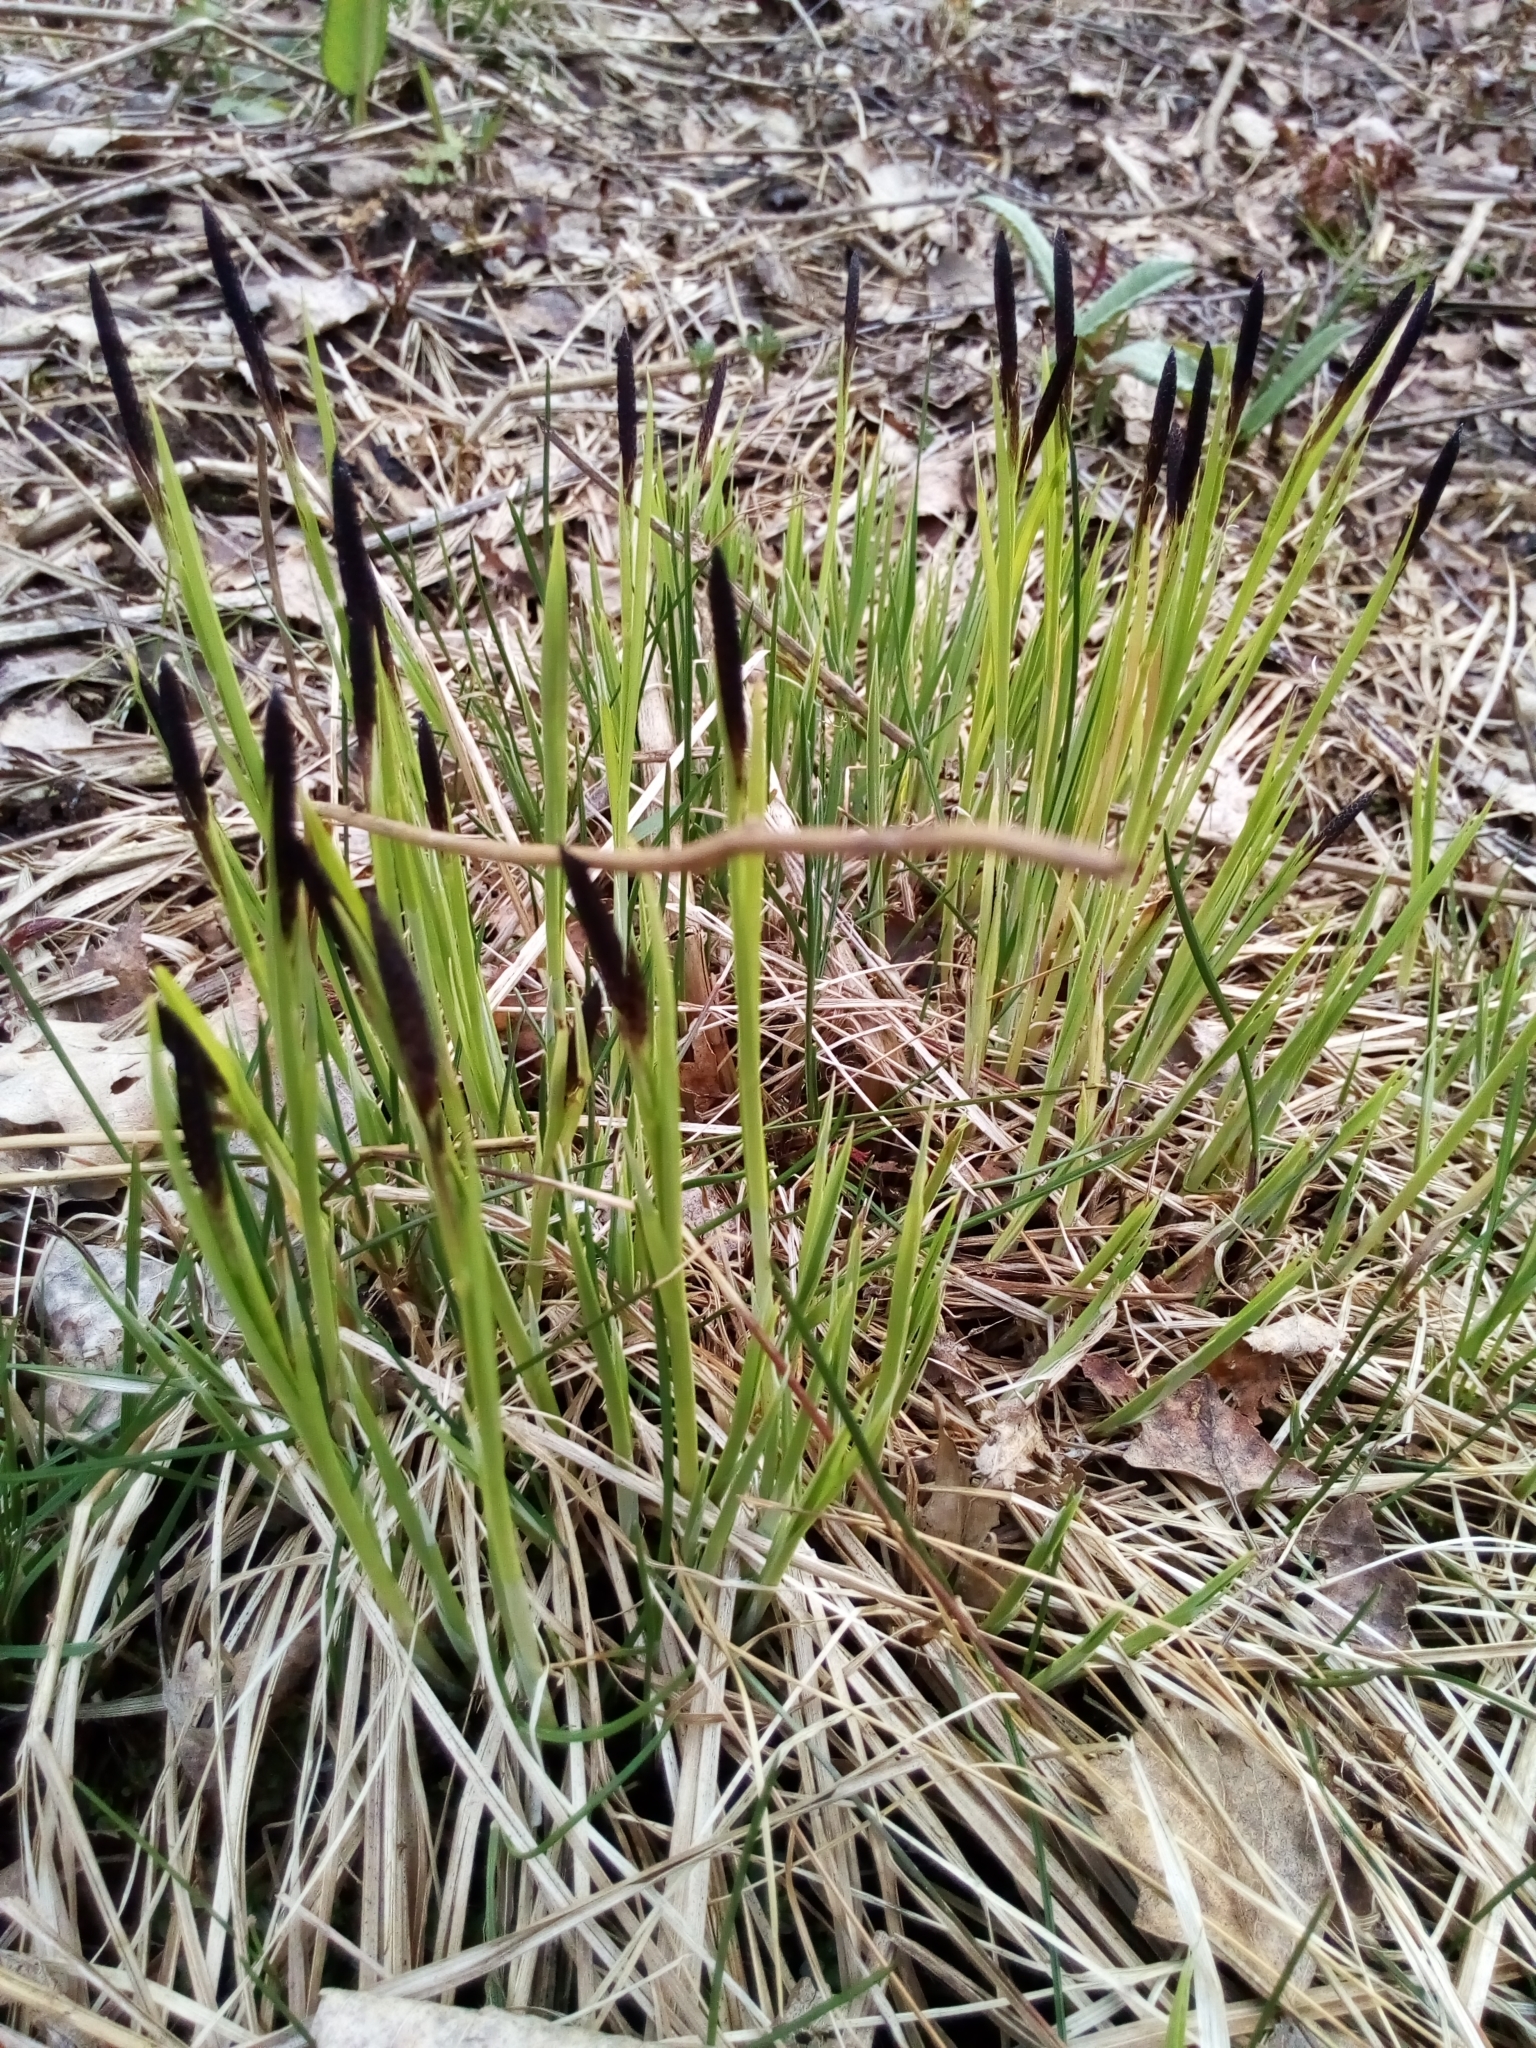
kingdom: Plantae
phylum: Tracheophyta
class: Liliopsida
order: Poales
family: Cyperaceae
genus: Carex
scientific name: Carex nigra
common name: Common sedge
